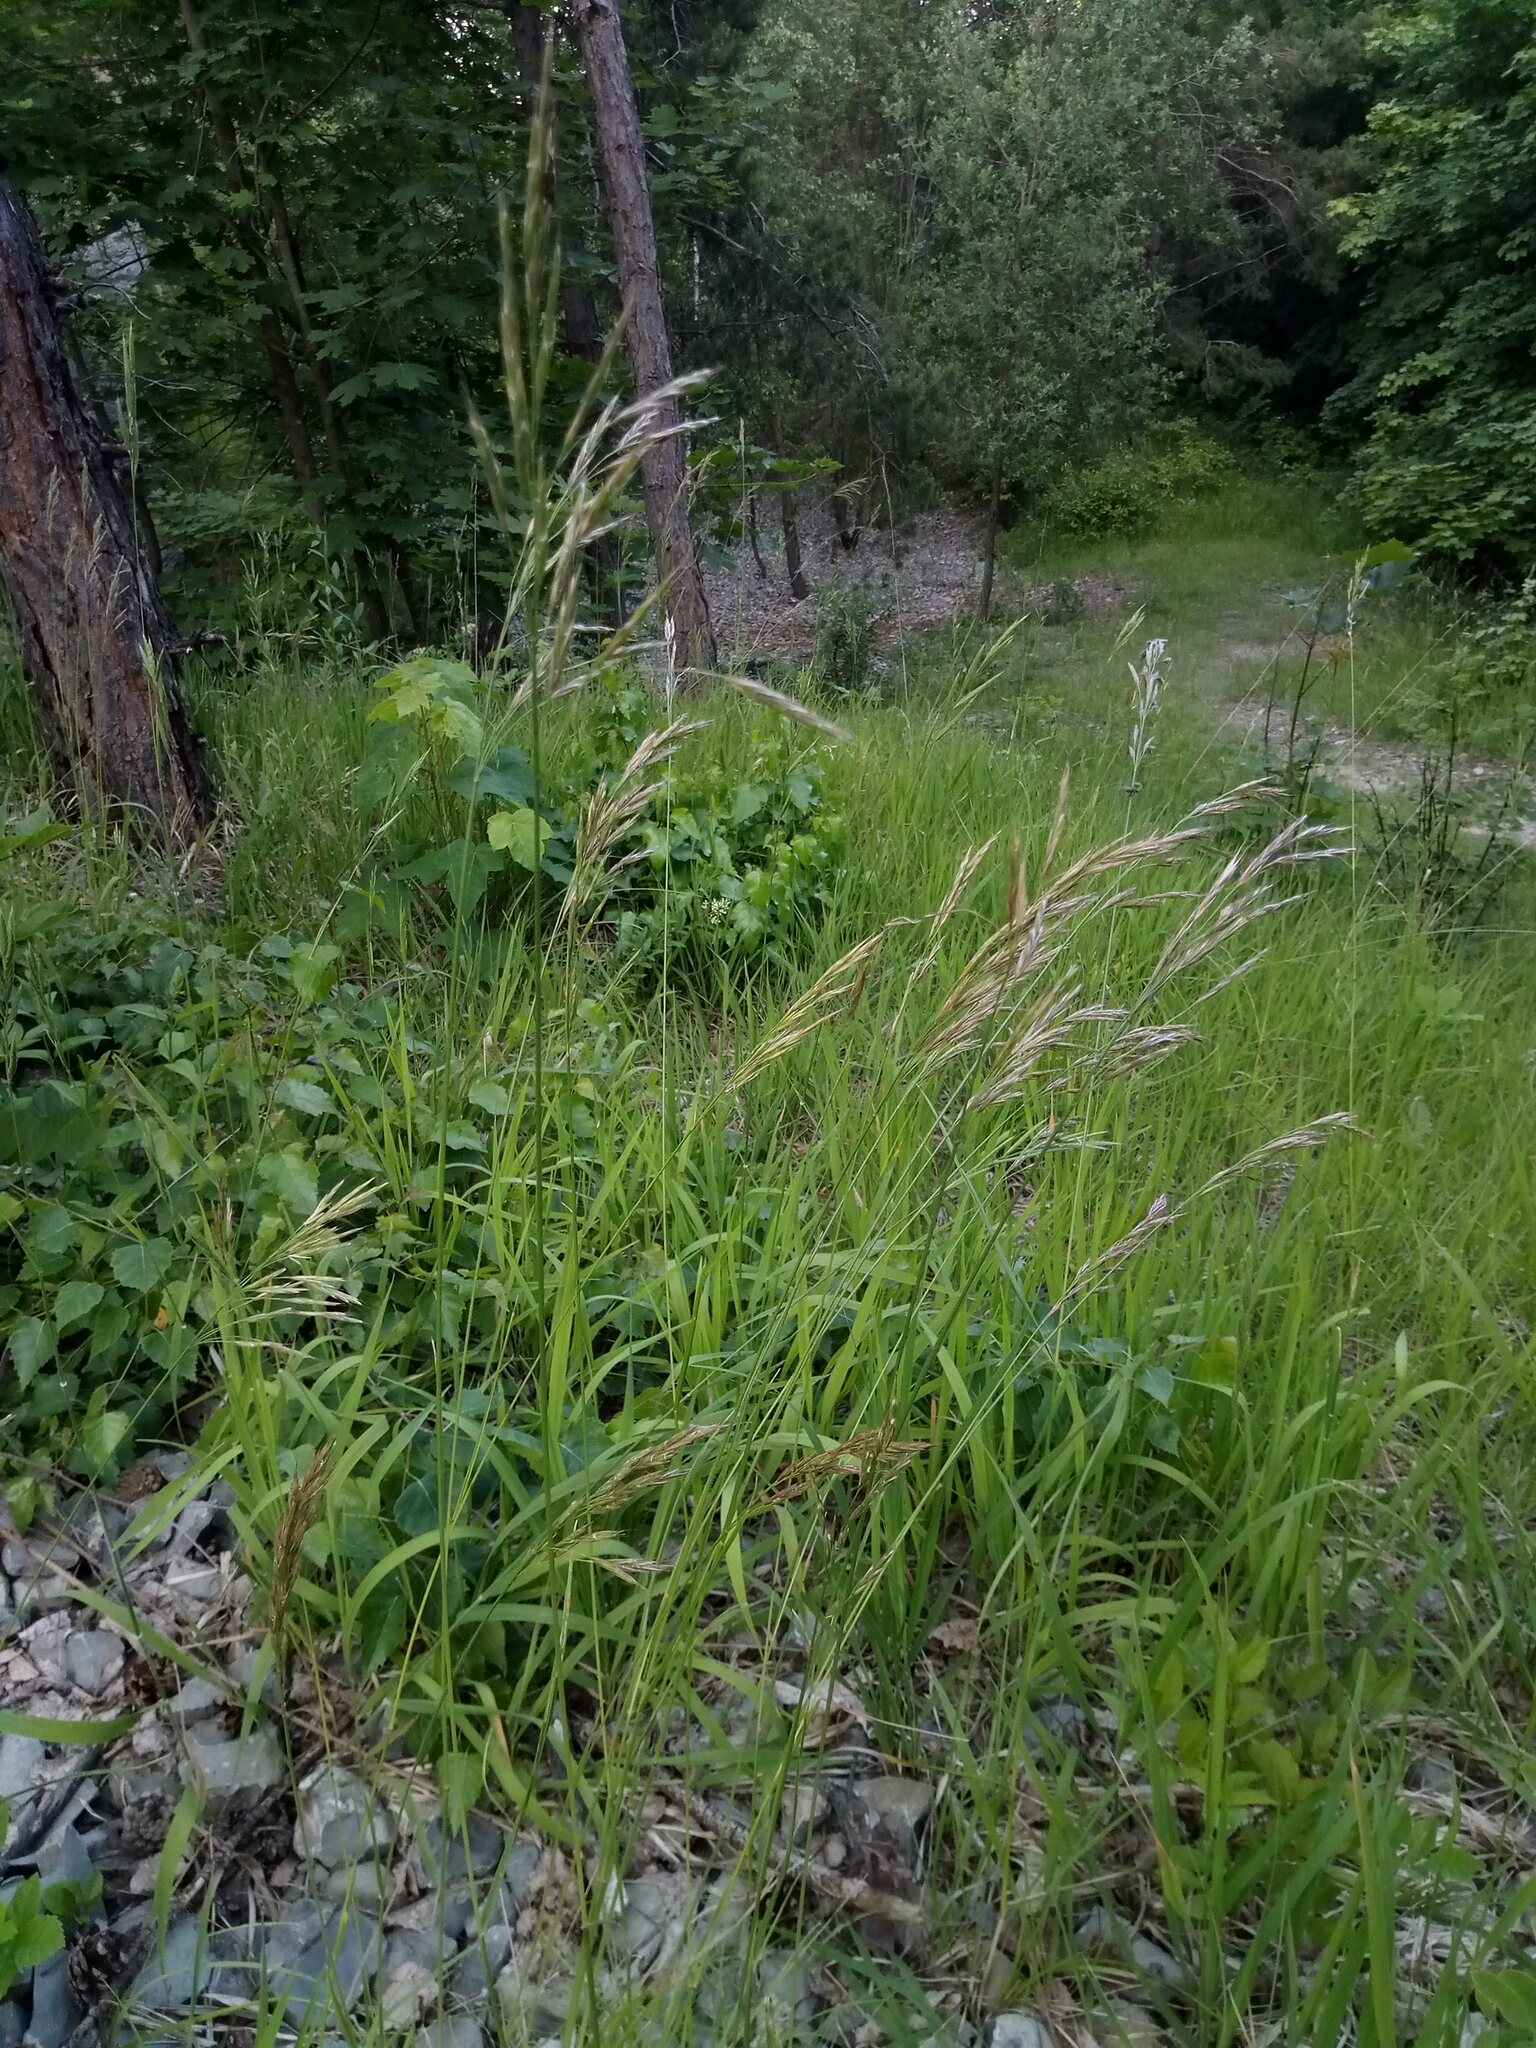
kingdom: Plantae
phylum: Tracheophyta
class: Liliopsida
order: Poales
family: Poaceae
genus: Bromus
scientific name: Bromus erectus
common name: Erect brome
